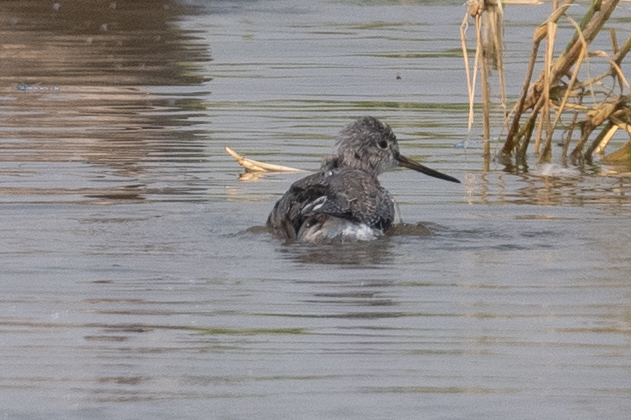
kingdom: Animalia
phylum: Chordata
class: Aves
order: Charadriiformes
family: Scolopacidae
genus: Tringa
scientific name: Tringa melanoleuca
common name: Greater yellowlegs
